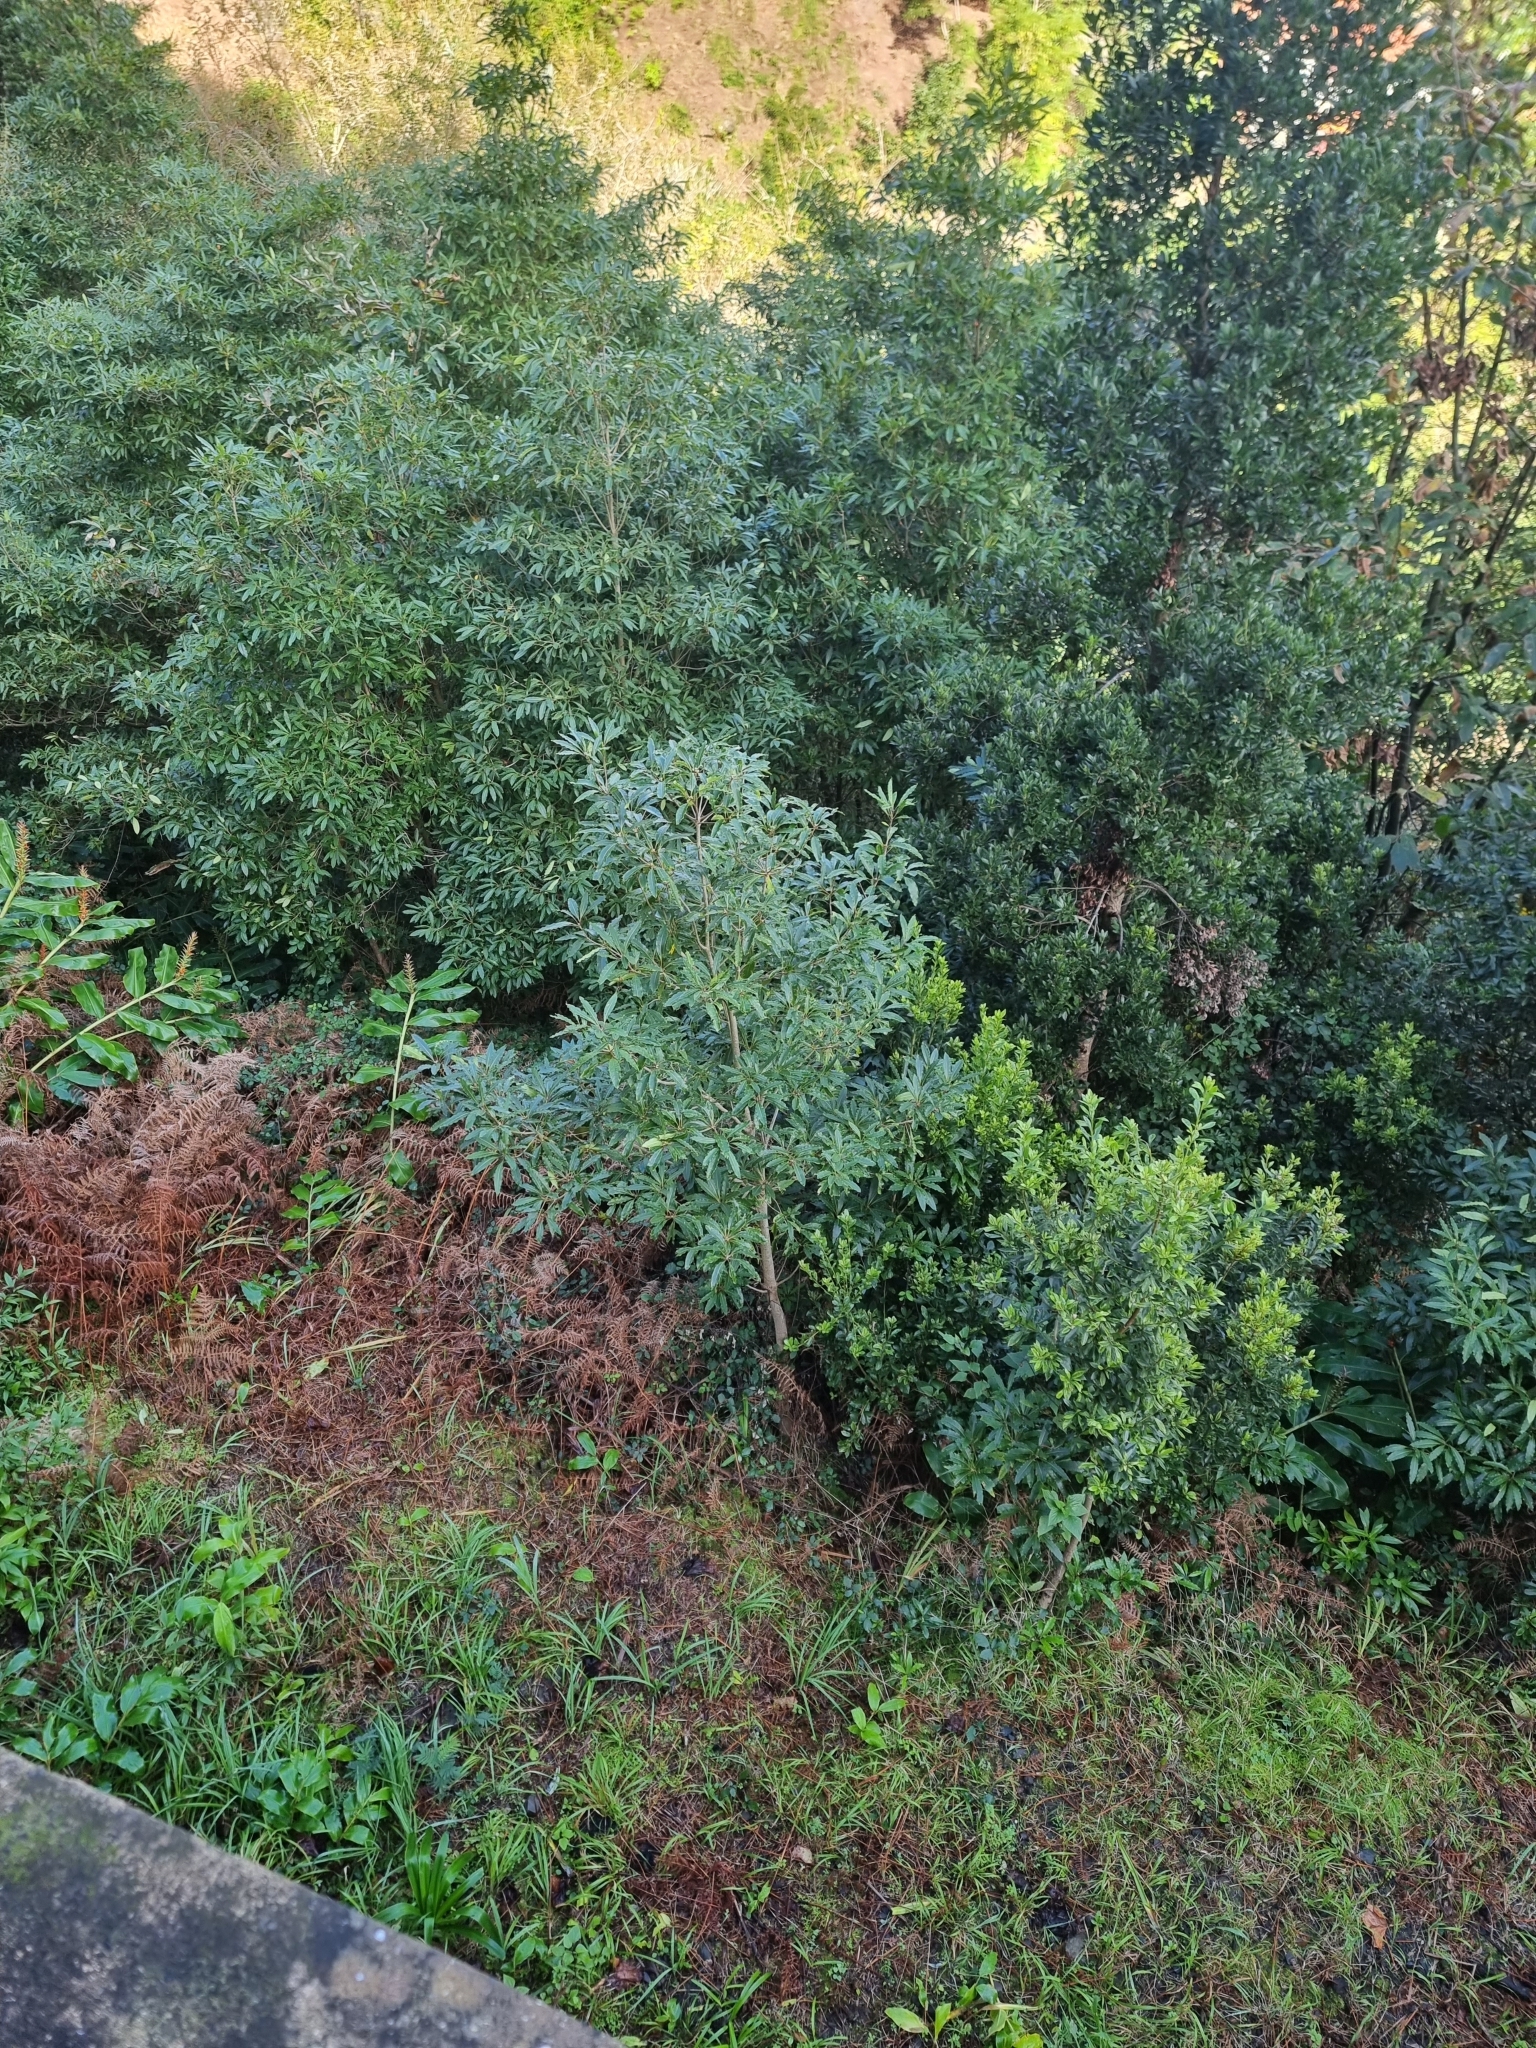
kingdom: Plantae
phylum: Tracheophyta
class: Magnoliopsida
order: Apiales
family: Pittosporaceae
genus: Pittosporum
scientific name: Pittosporum undulatum
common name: Australian cheesewood
